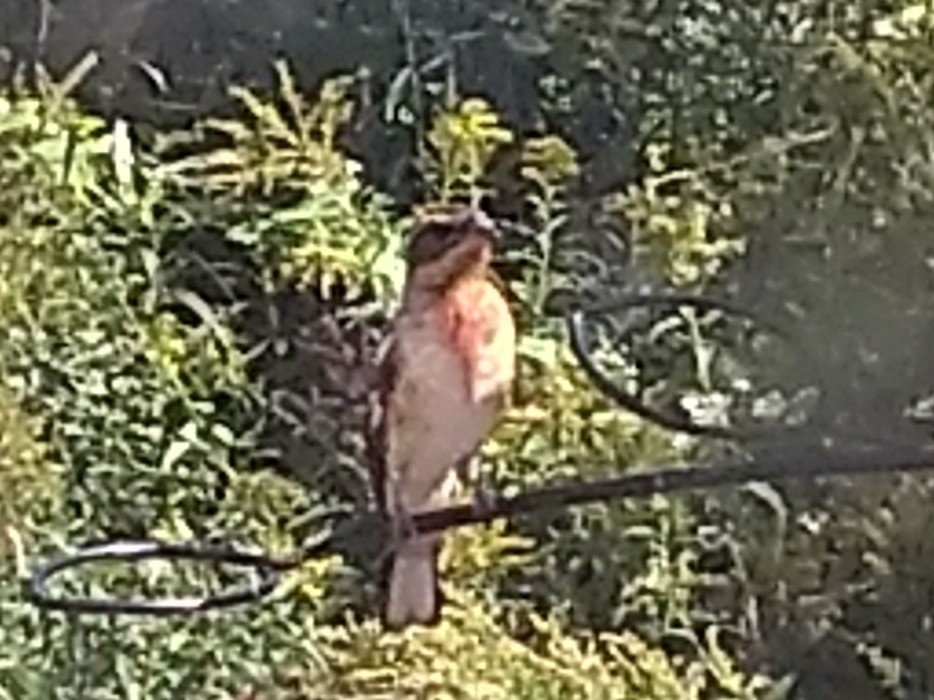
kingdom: Animalia
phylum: Chordata
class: Aves
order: Passeriformes
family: Cardinalidae
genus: Pheucticus
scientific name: Pheucticus ludovicianus
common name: Rose-breasted grosbeak
